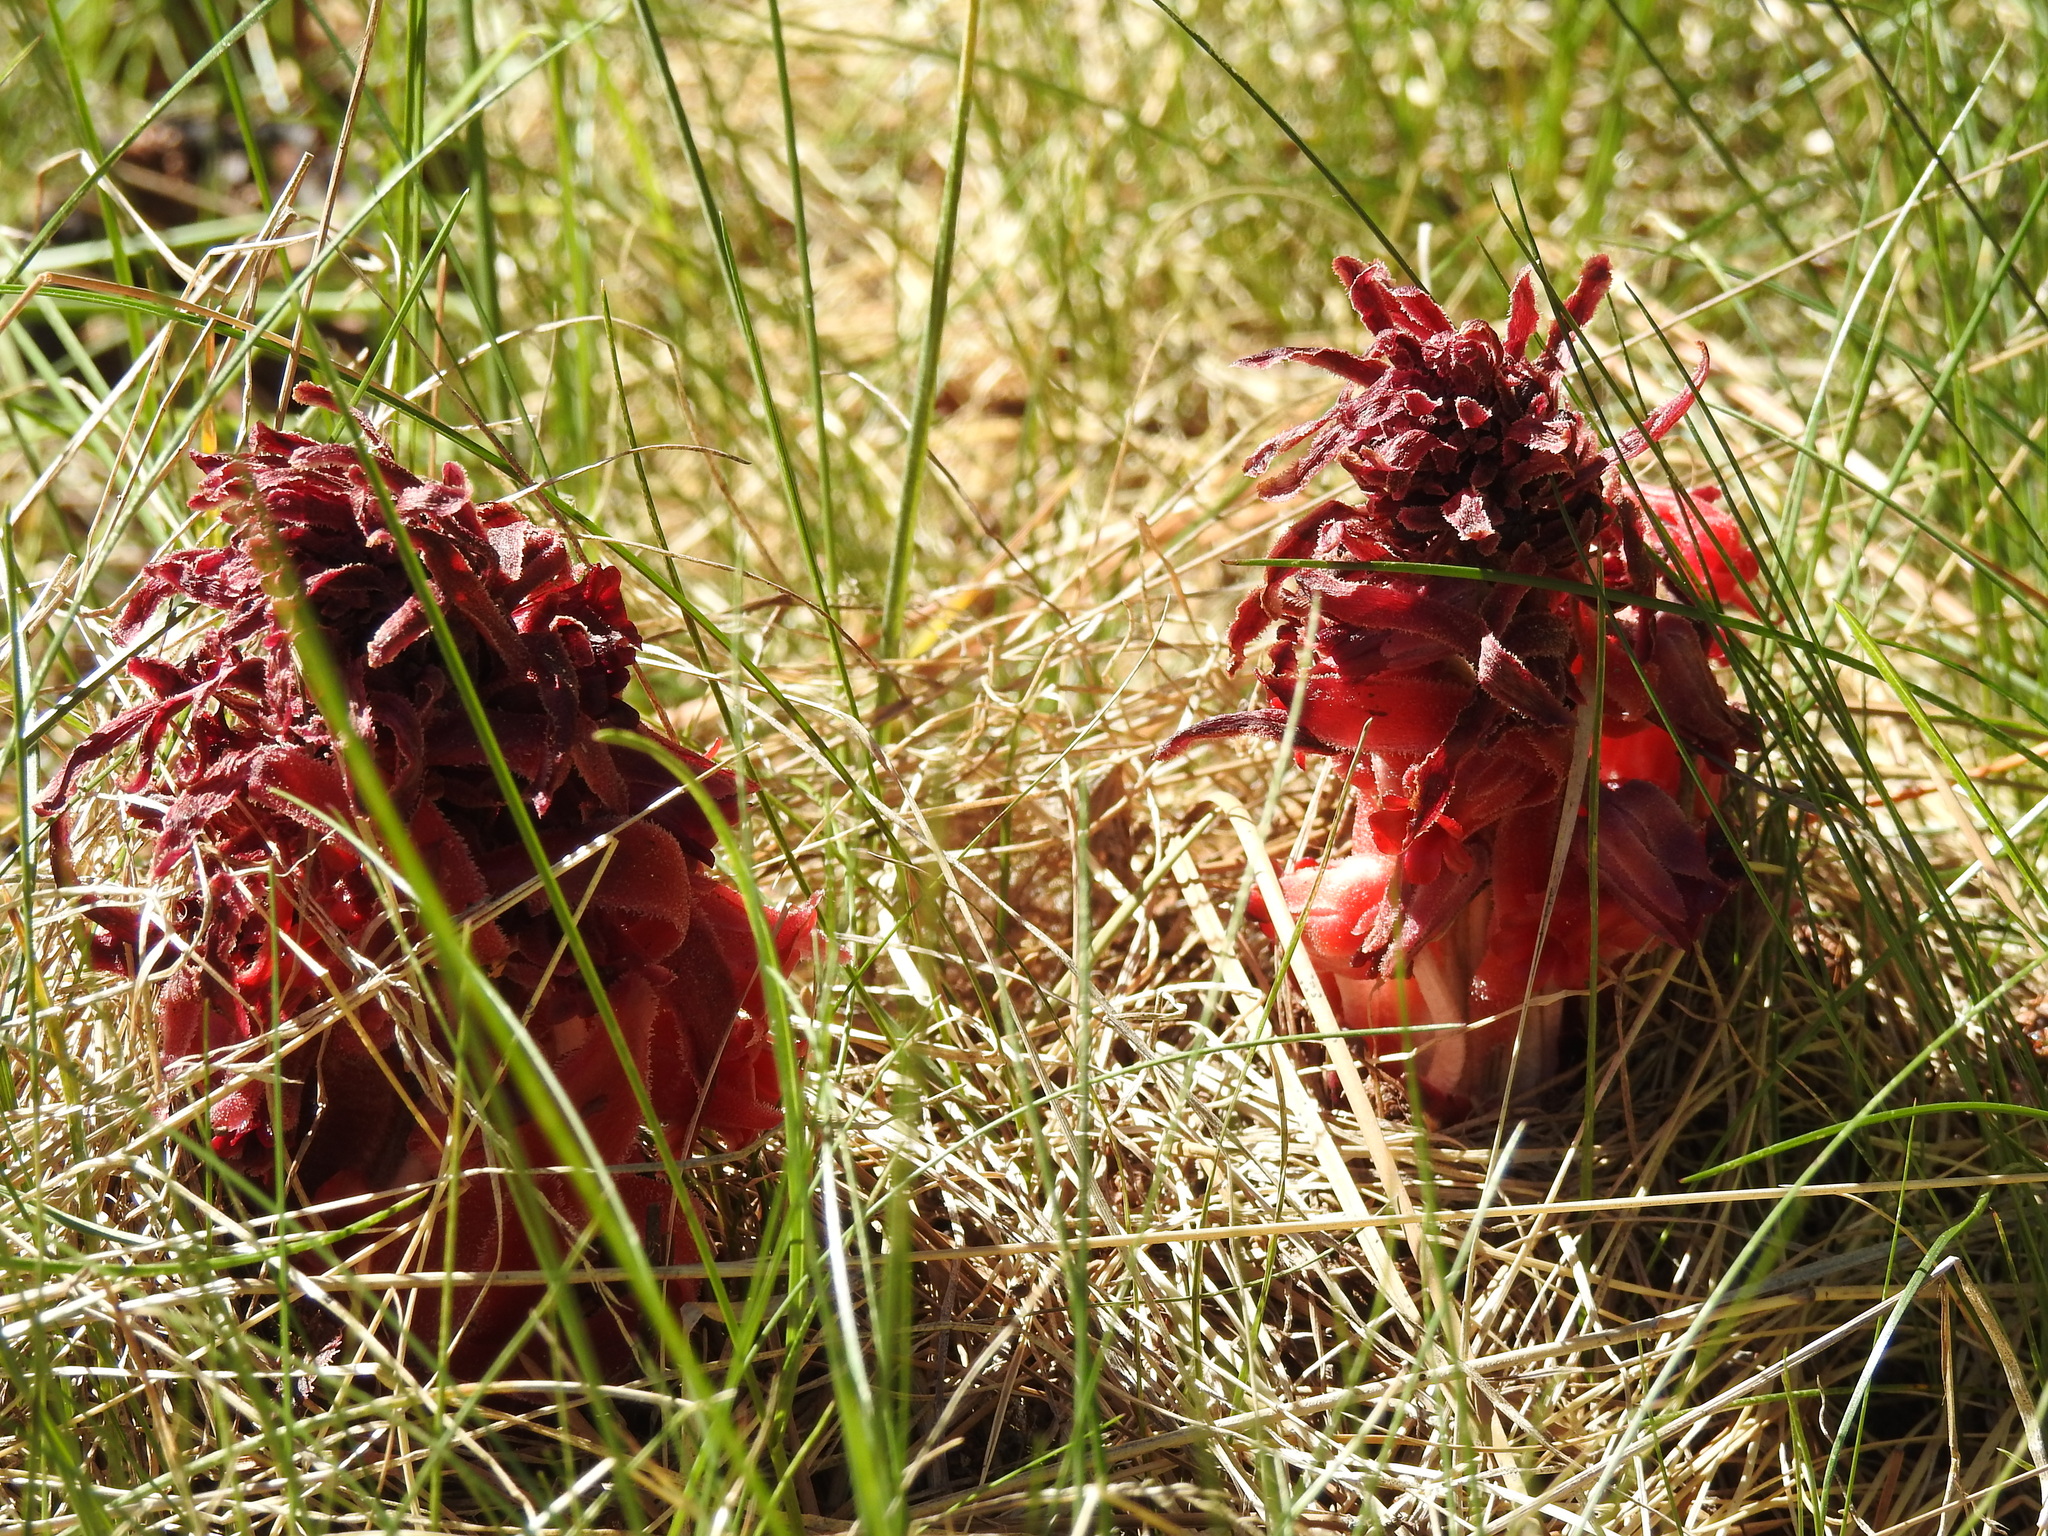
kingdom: Plantae
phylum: Tracheophyta
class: Magnoliopsida
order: Ericales
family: Ericaceae
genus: Sarcodes
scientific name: Sarcodes sanguinea
